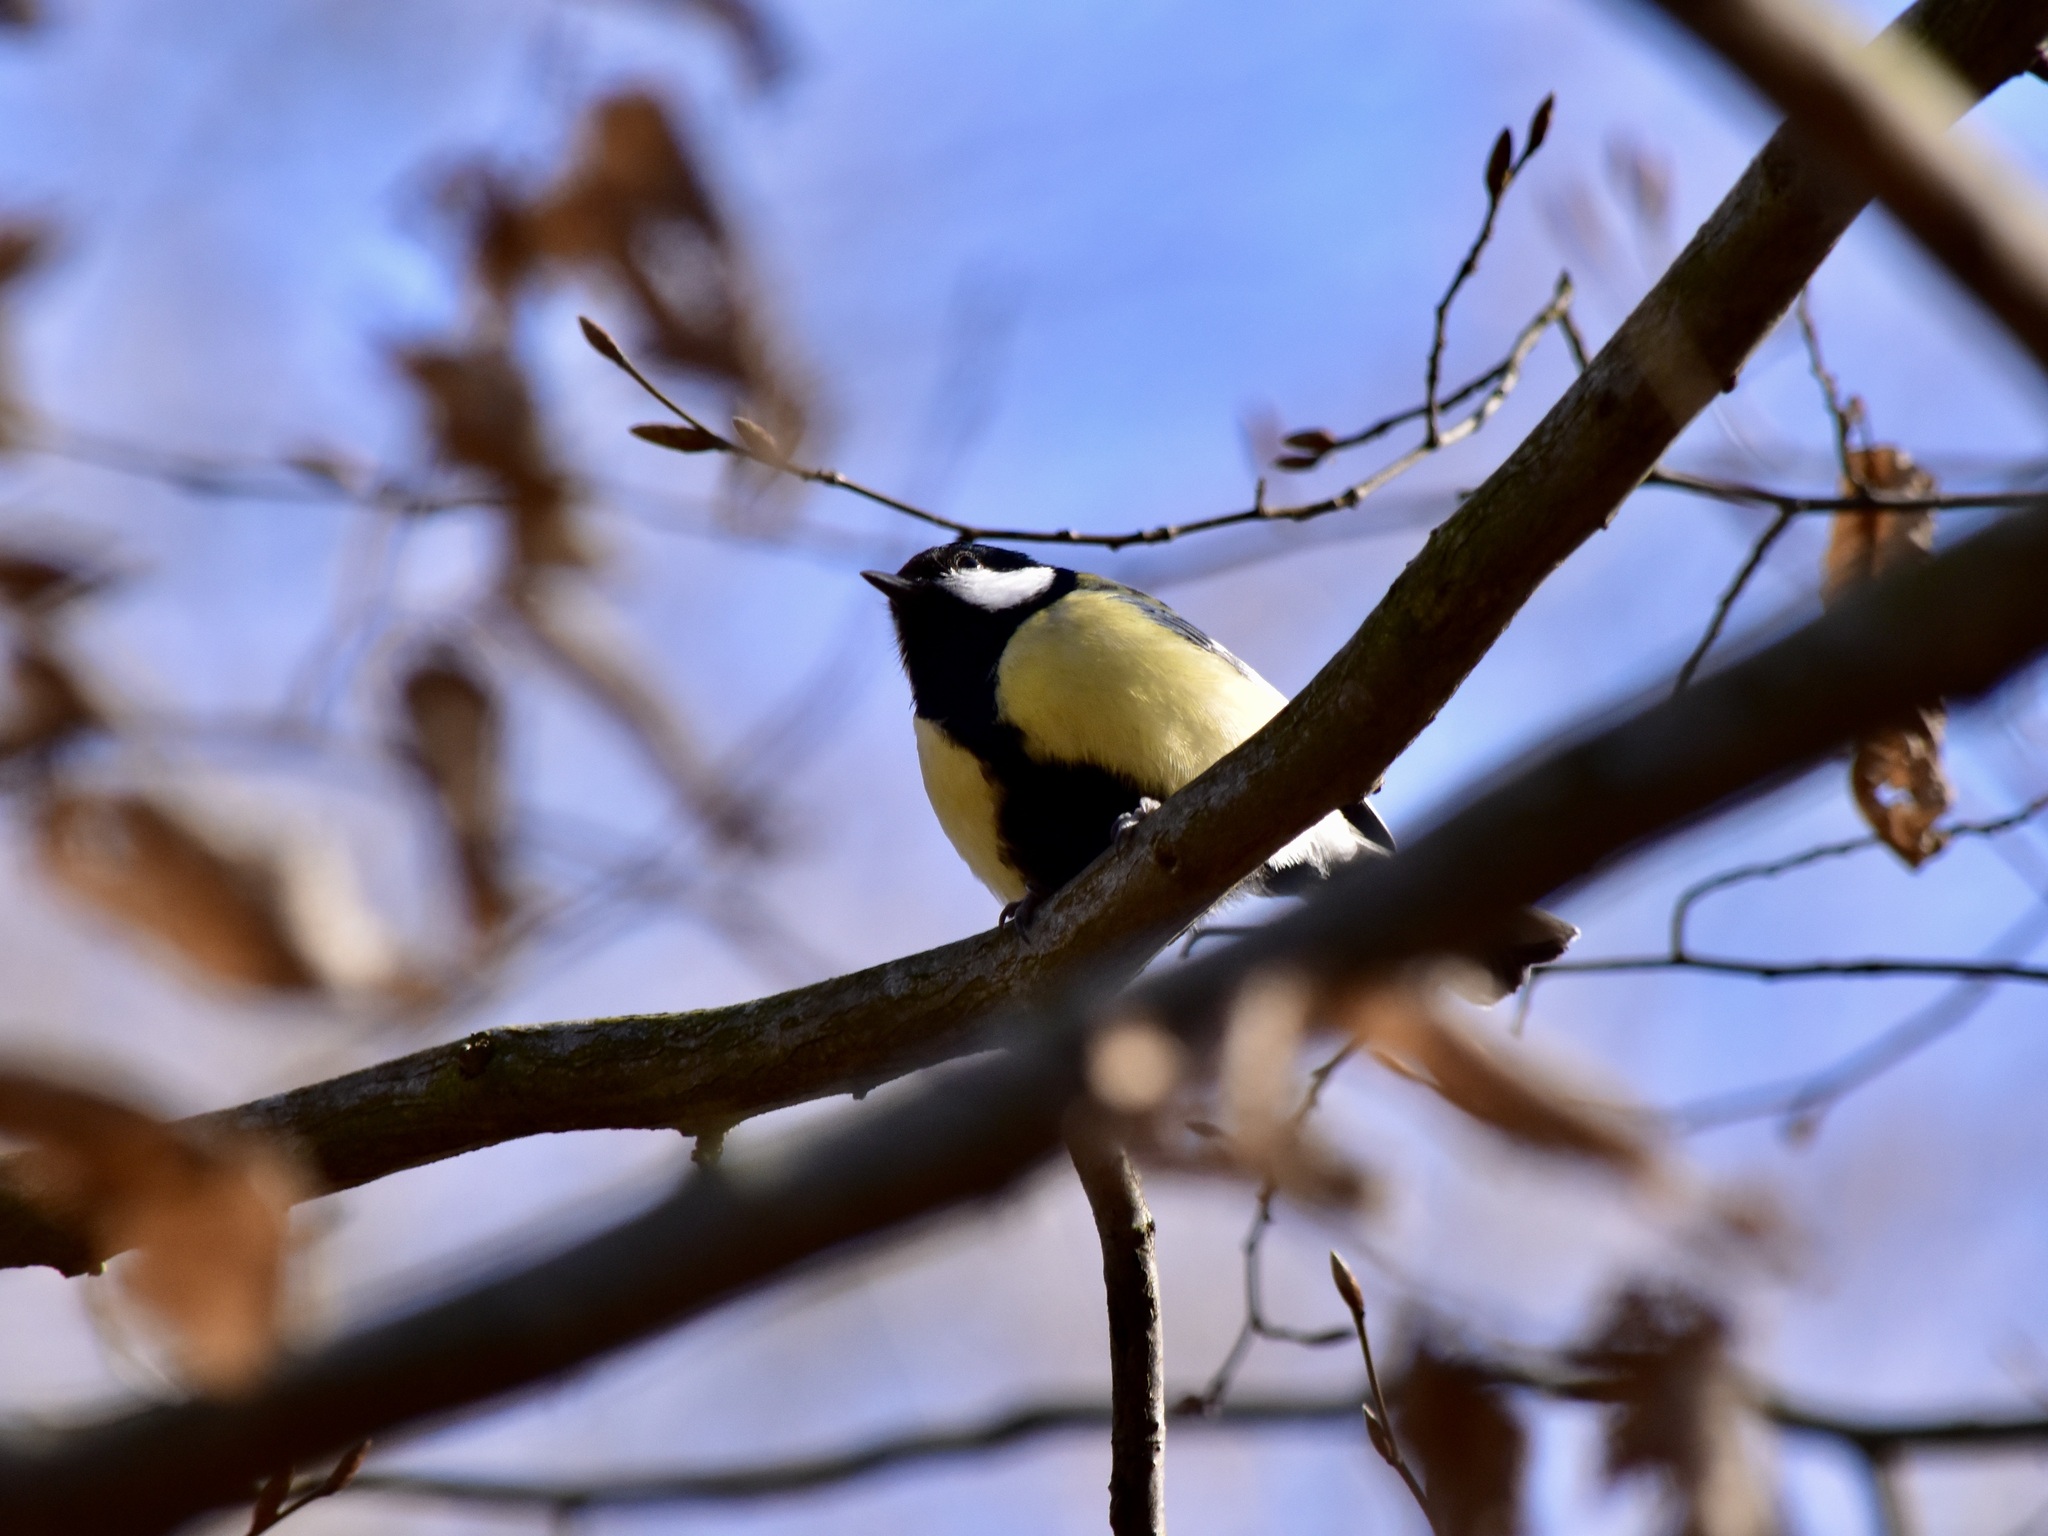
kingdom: Animalia
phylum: Chordata
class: Aves
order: Passeriformes
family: Paridae
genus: Parus
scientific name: Parus major
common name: Great tit
